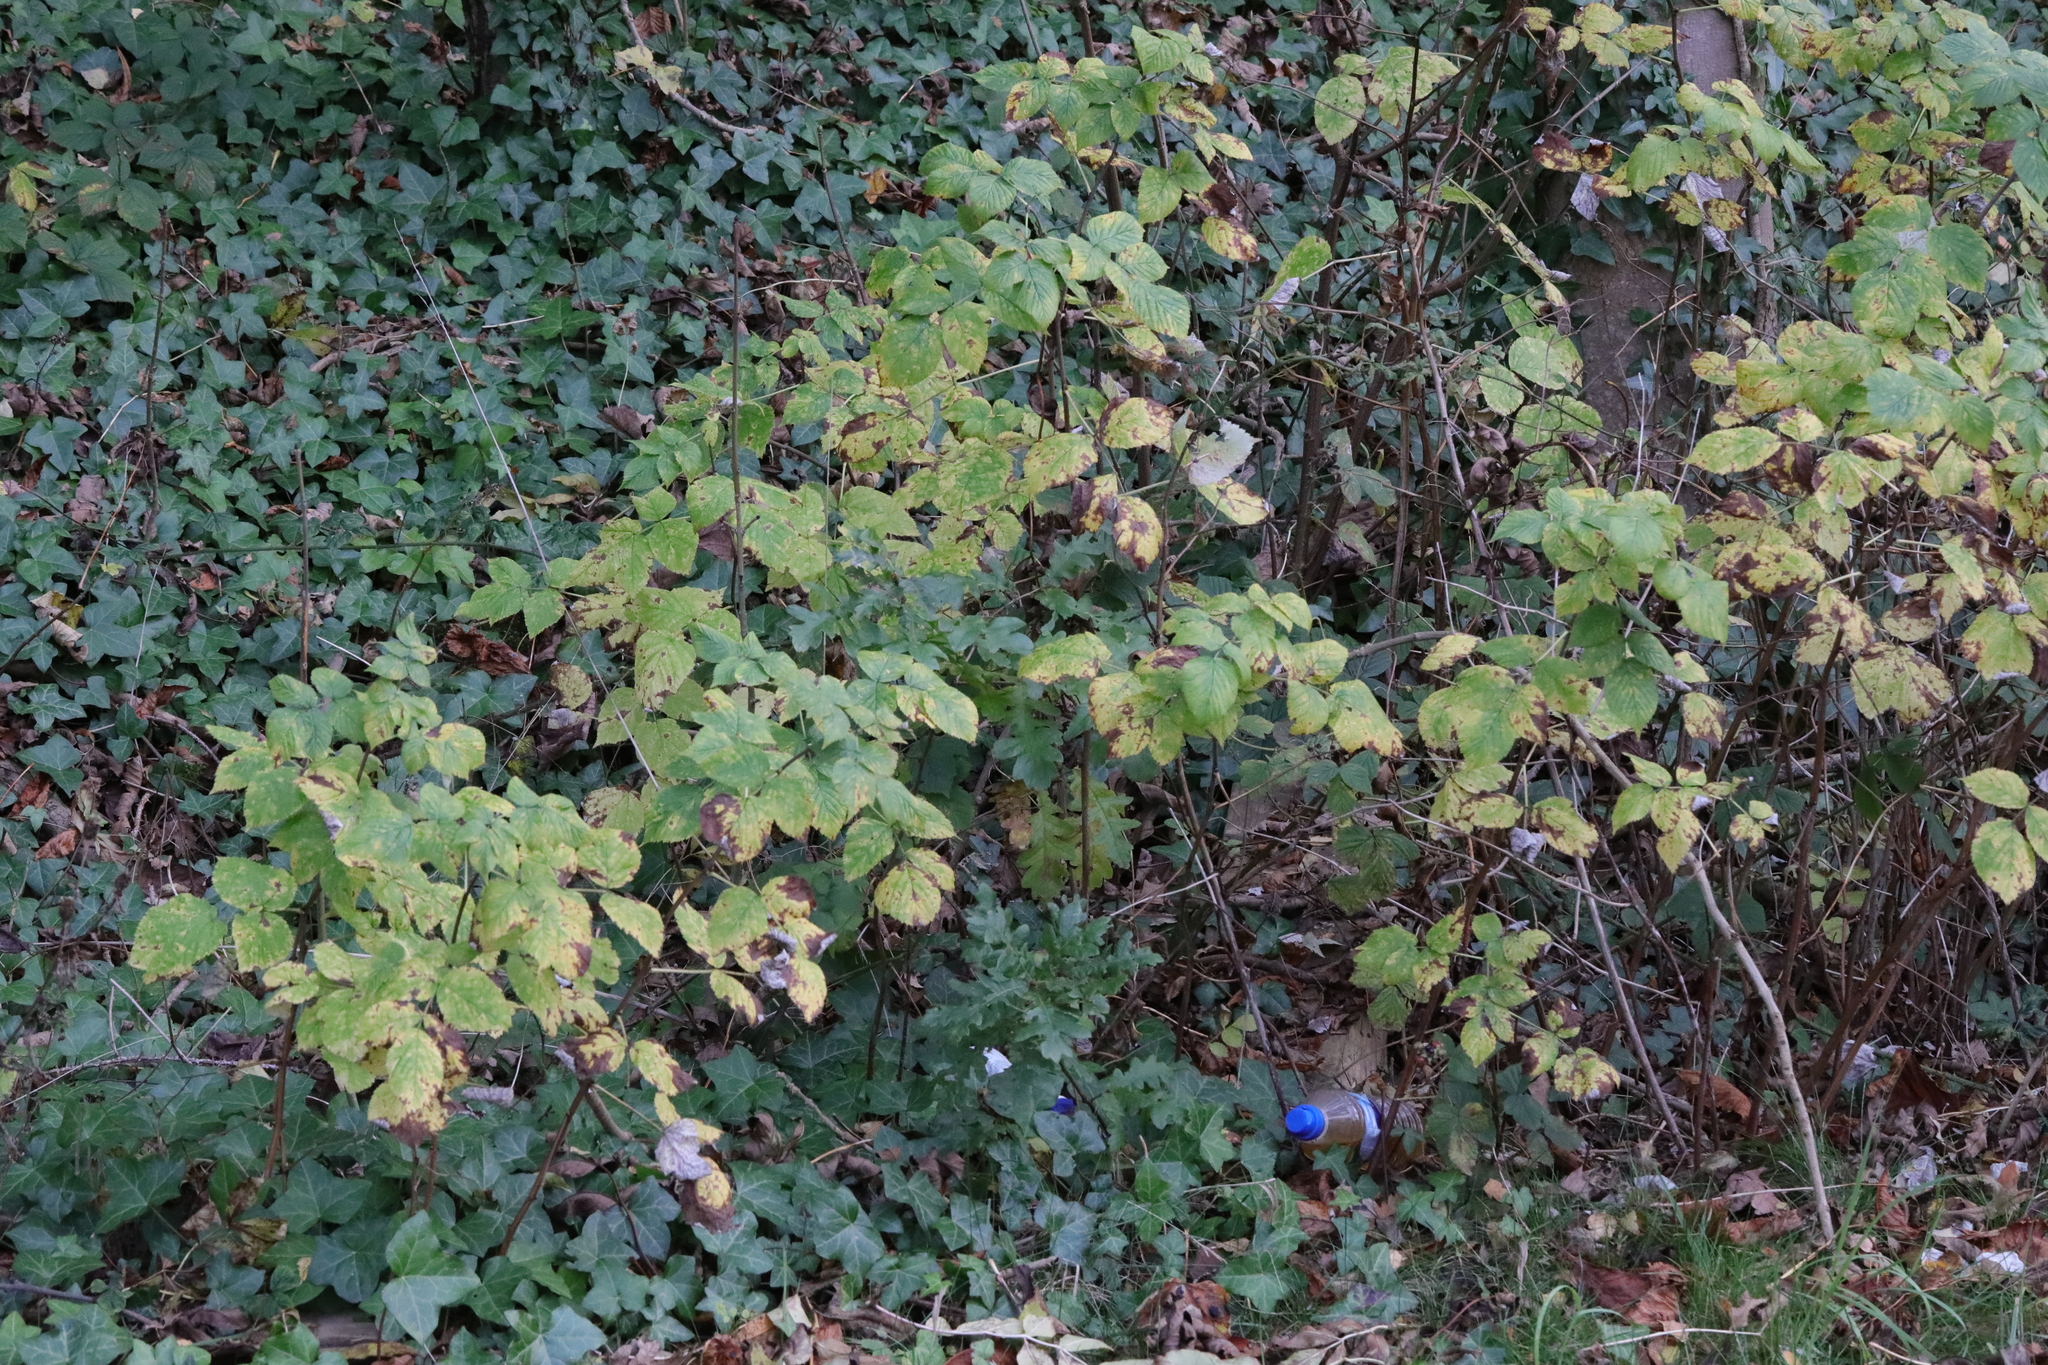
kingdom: Plantae
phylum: Tracheophyta
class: Magnoliopsida
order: Apiales
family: Araliaceae
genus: Hedera
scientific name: Hedera helix
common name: Ivy
